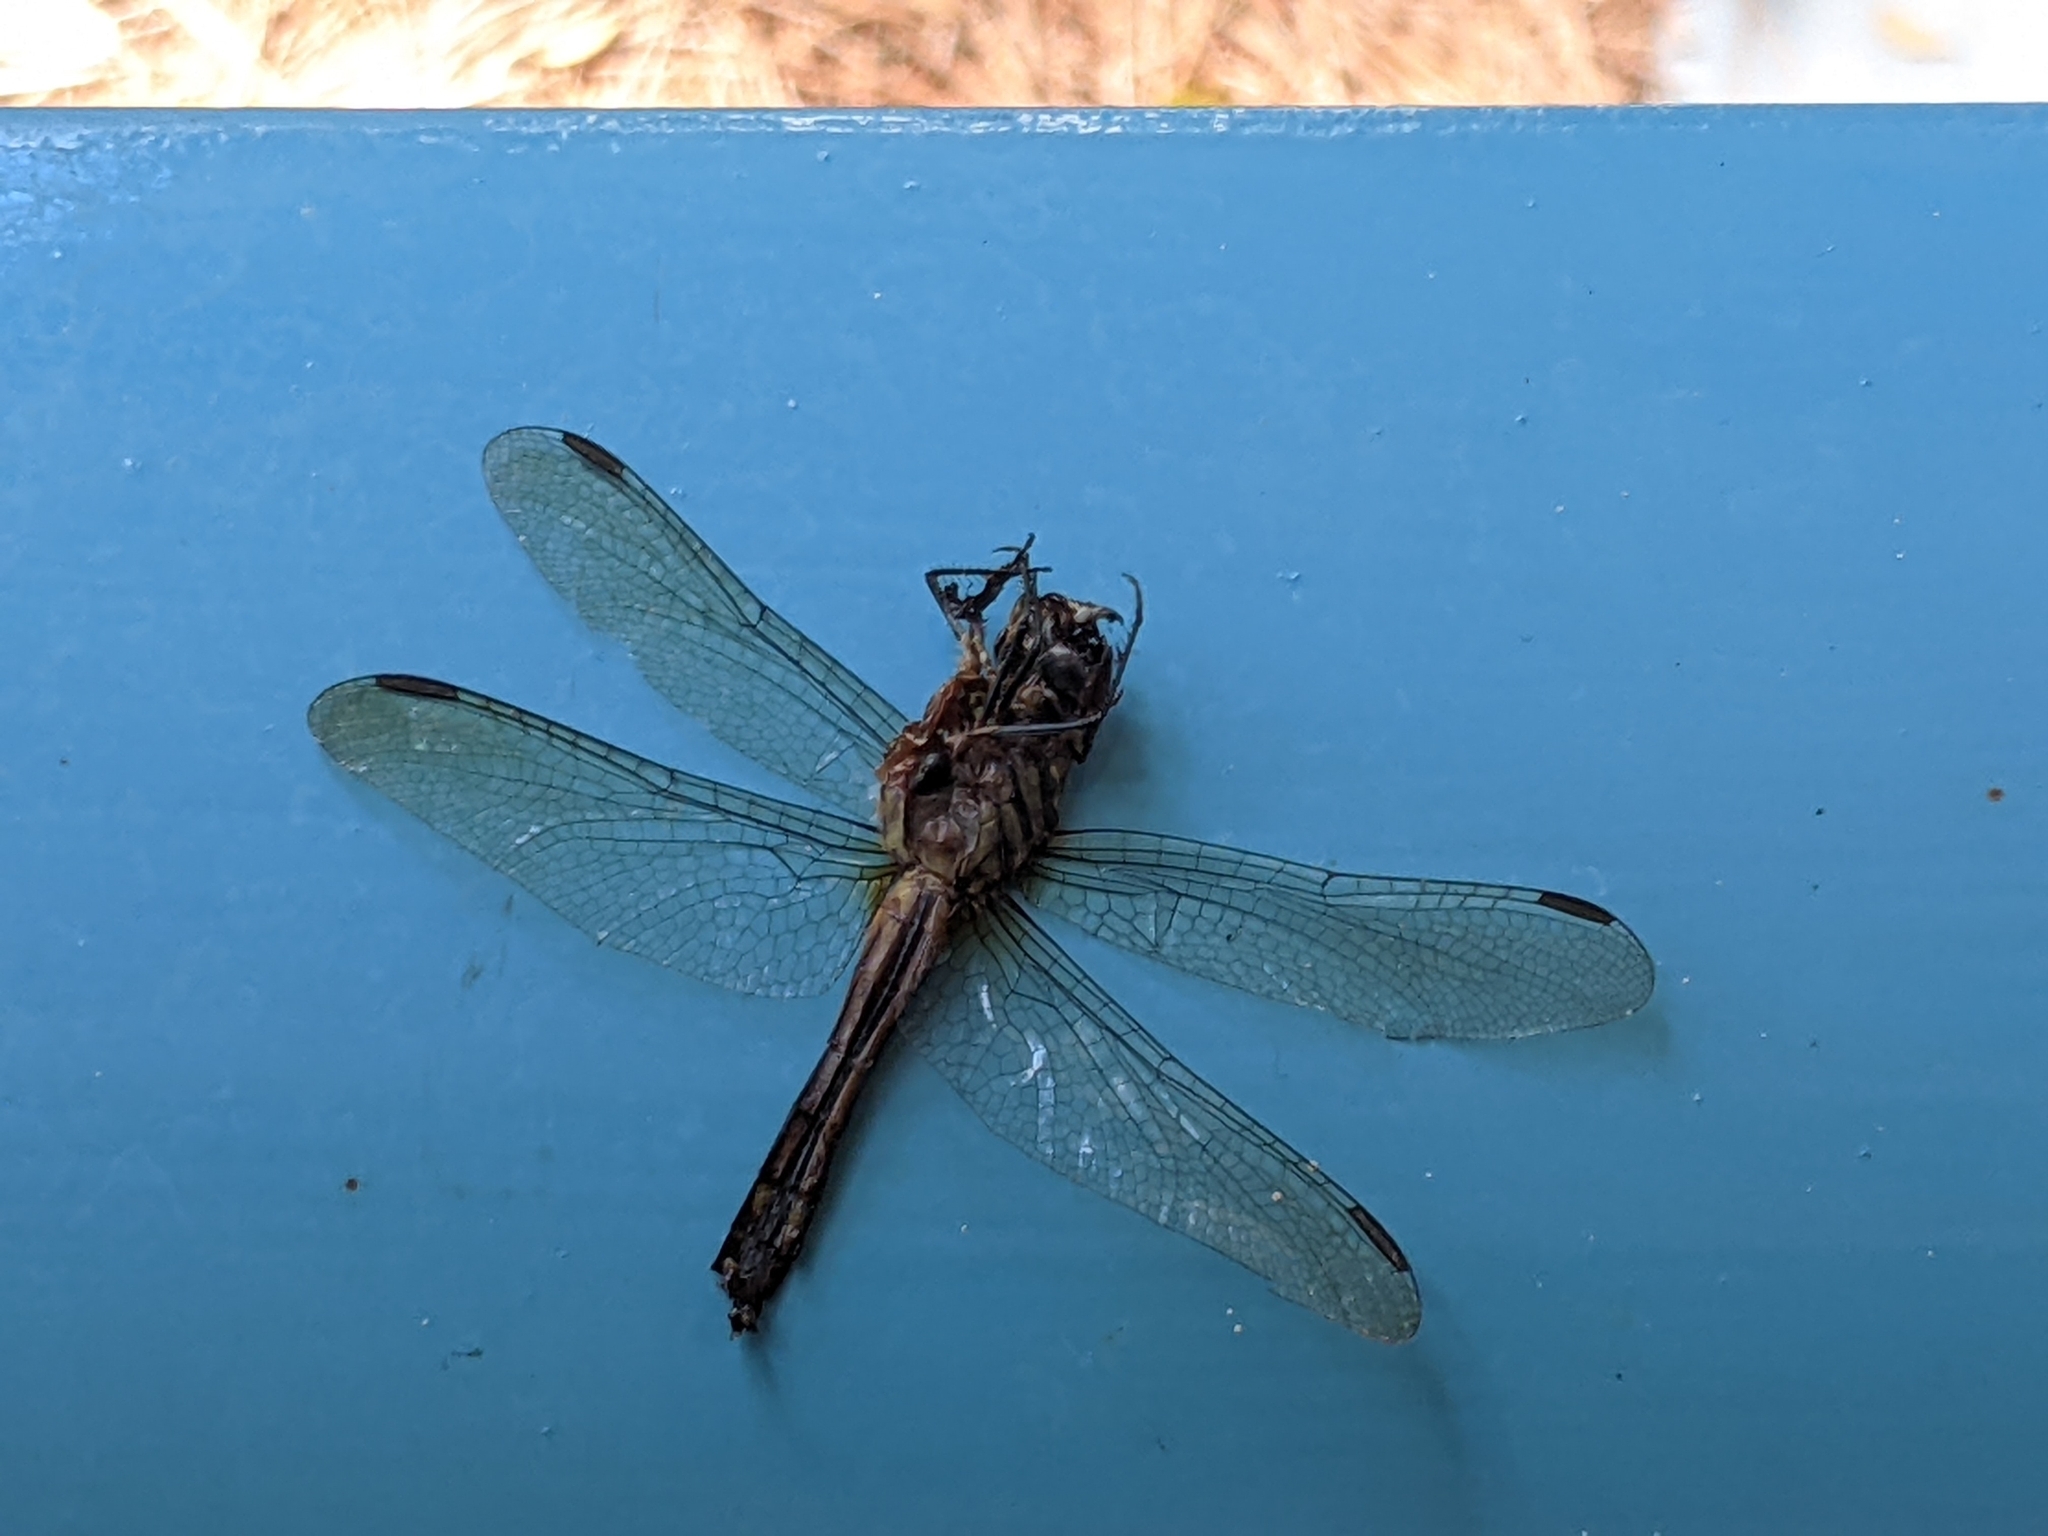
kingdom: Animalia
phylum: Arthropoda
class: Insecta
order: Odonata
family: Libellulidae
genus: Pachydiplax
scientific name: Pachydiplax longipennis
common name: Blue dasher
